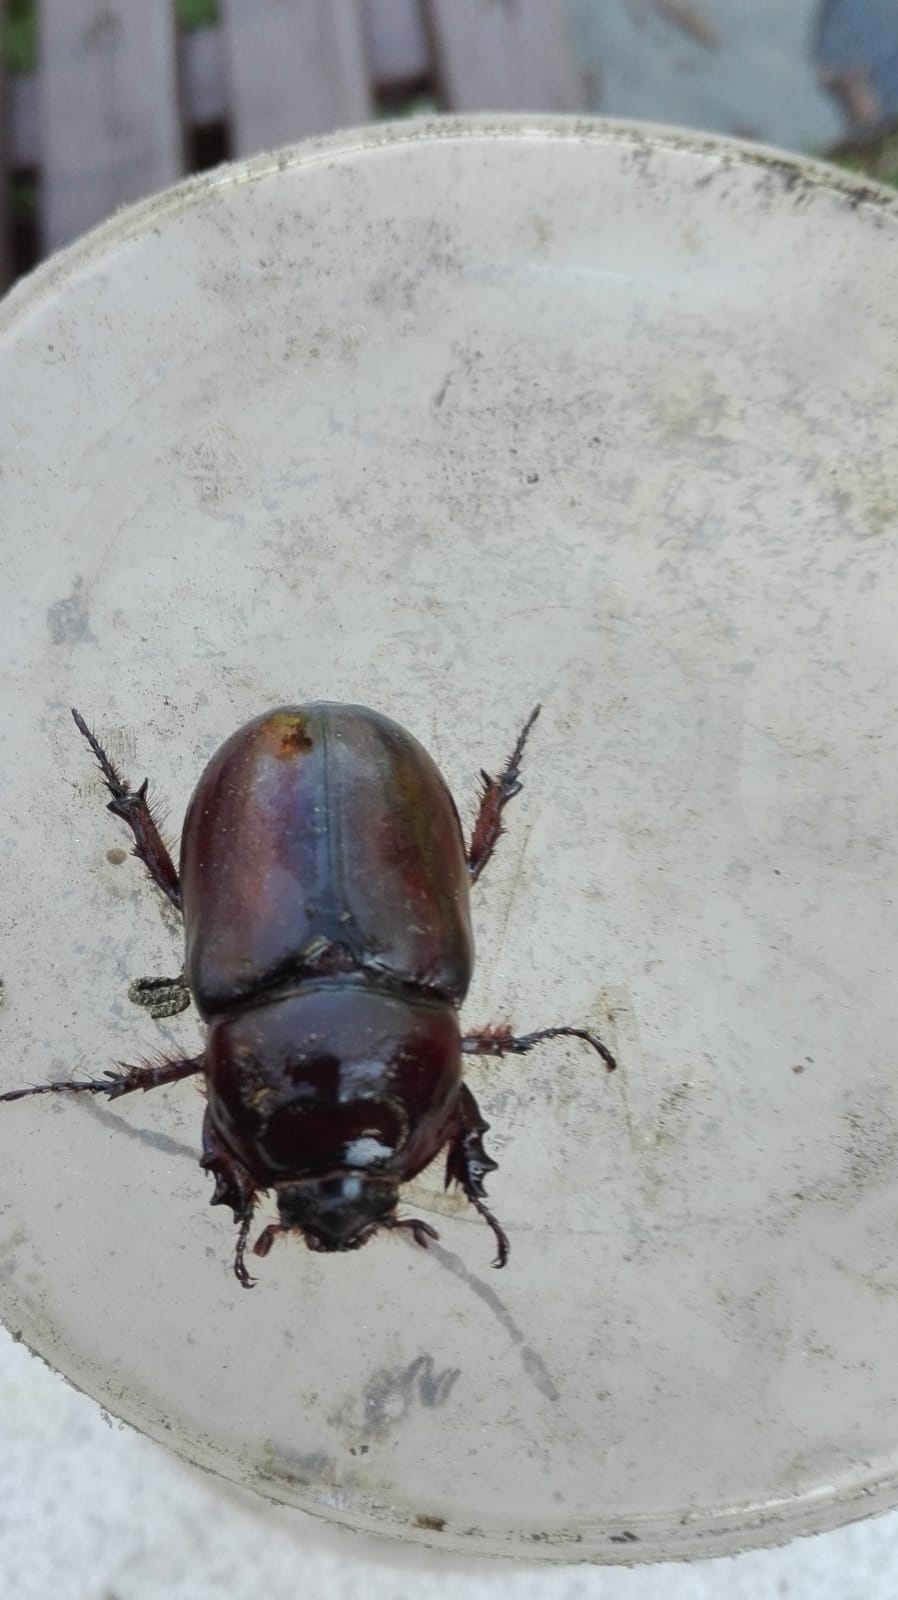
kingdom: Animalia
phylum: Arthropoda
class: Insecta
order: Coleoptera
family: Scarabaeidae
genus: Oryctes
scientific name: Oryctes nasicornis
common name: European rhinoceros beetle
